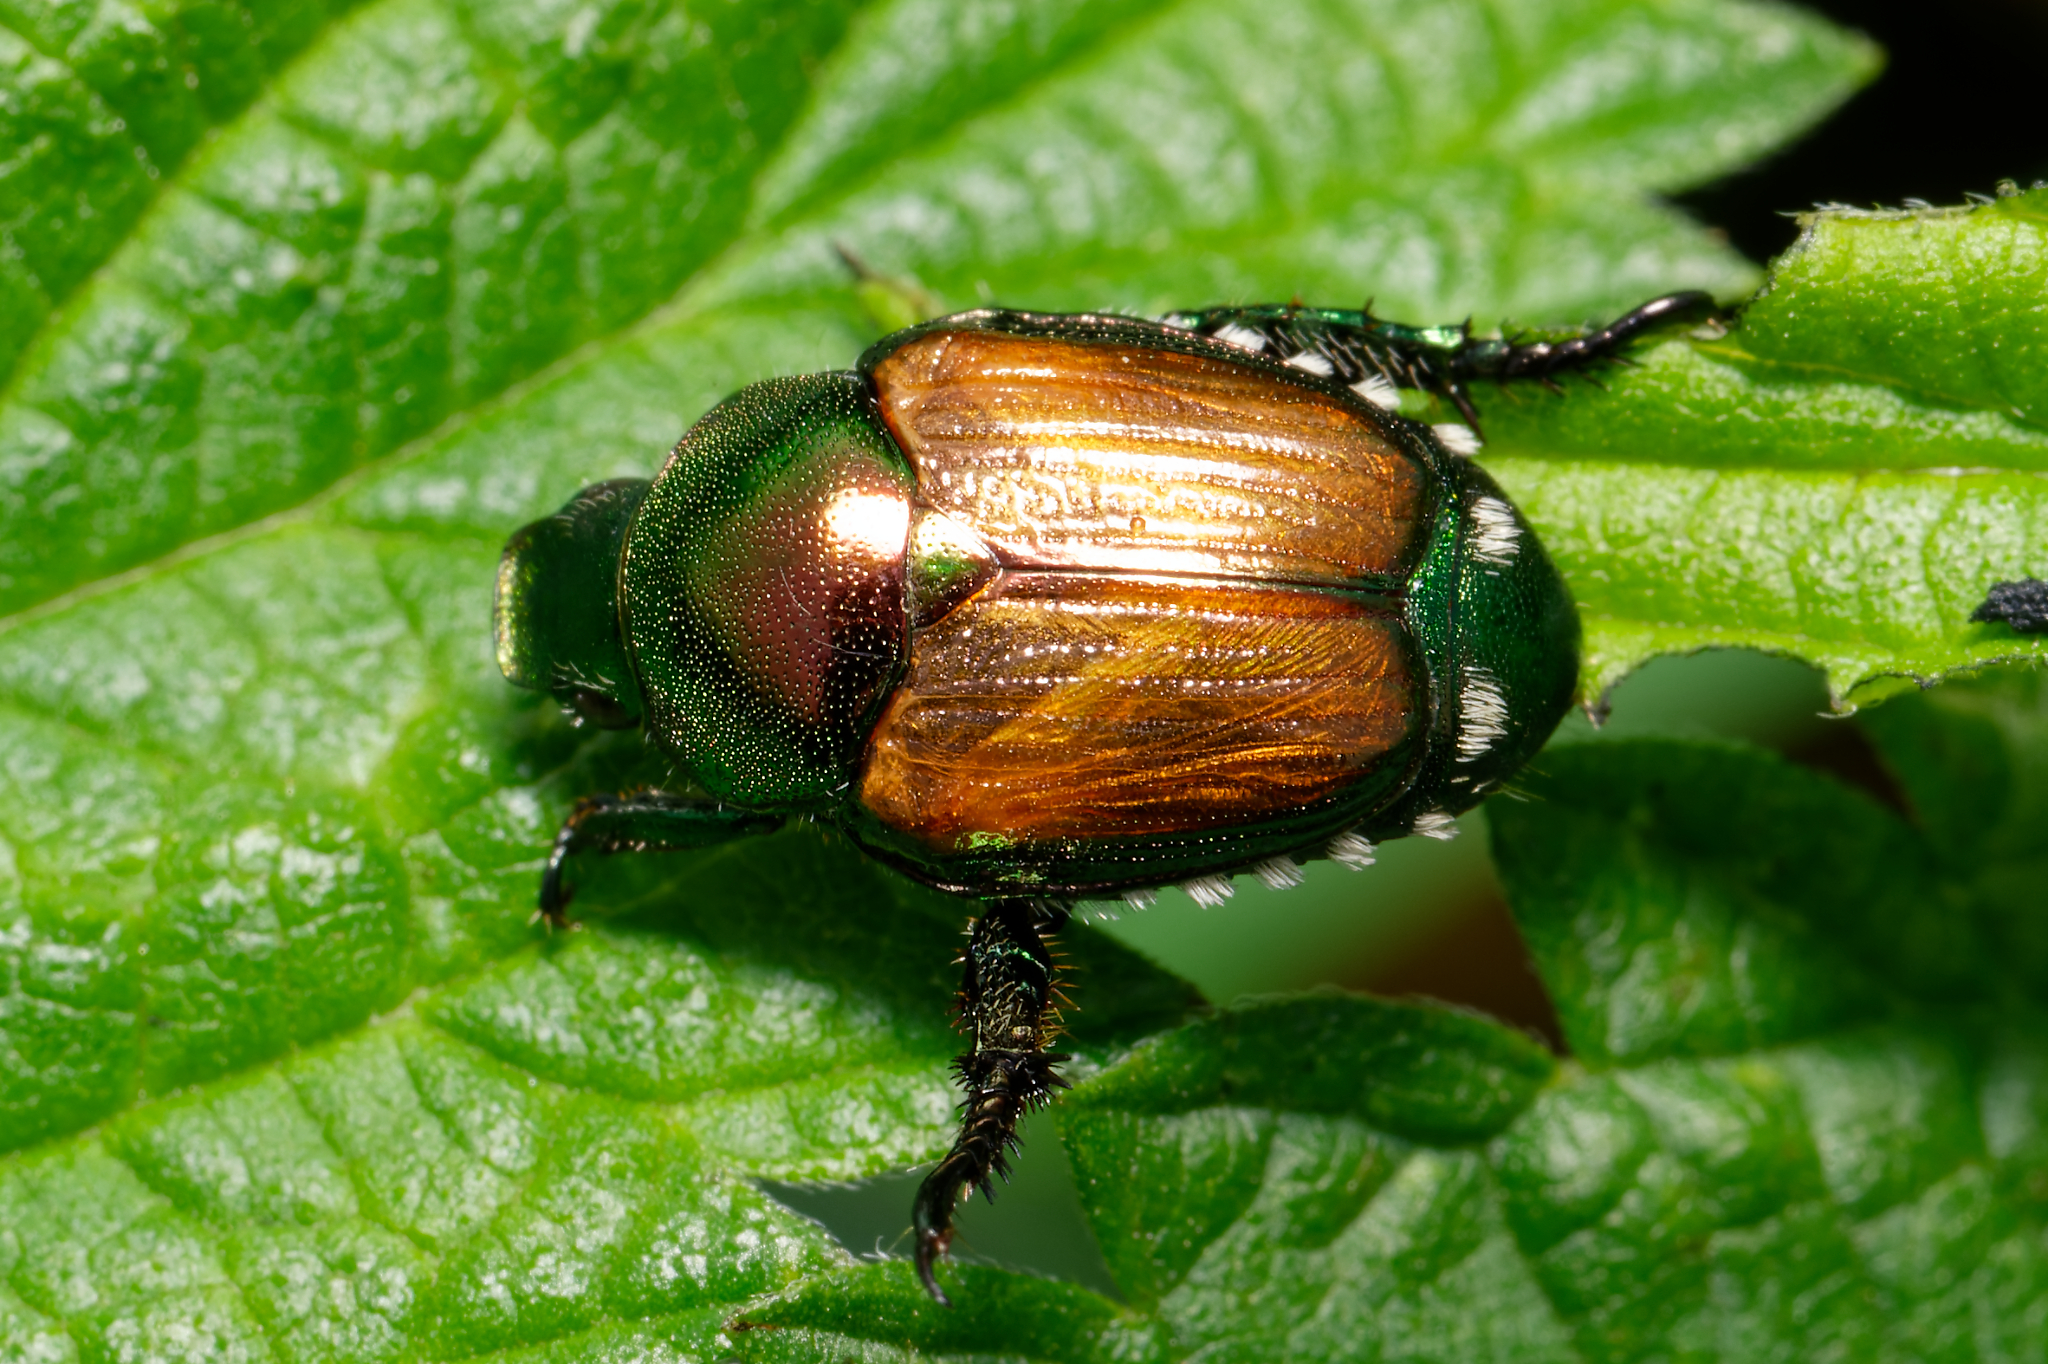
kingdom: Animalia
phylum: Arthropoda
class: Insecta
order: Coleoptera
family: Scarabaeidae
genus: Popillia
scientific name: Popillia japonica
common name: Japanese beetle
